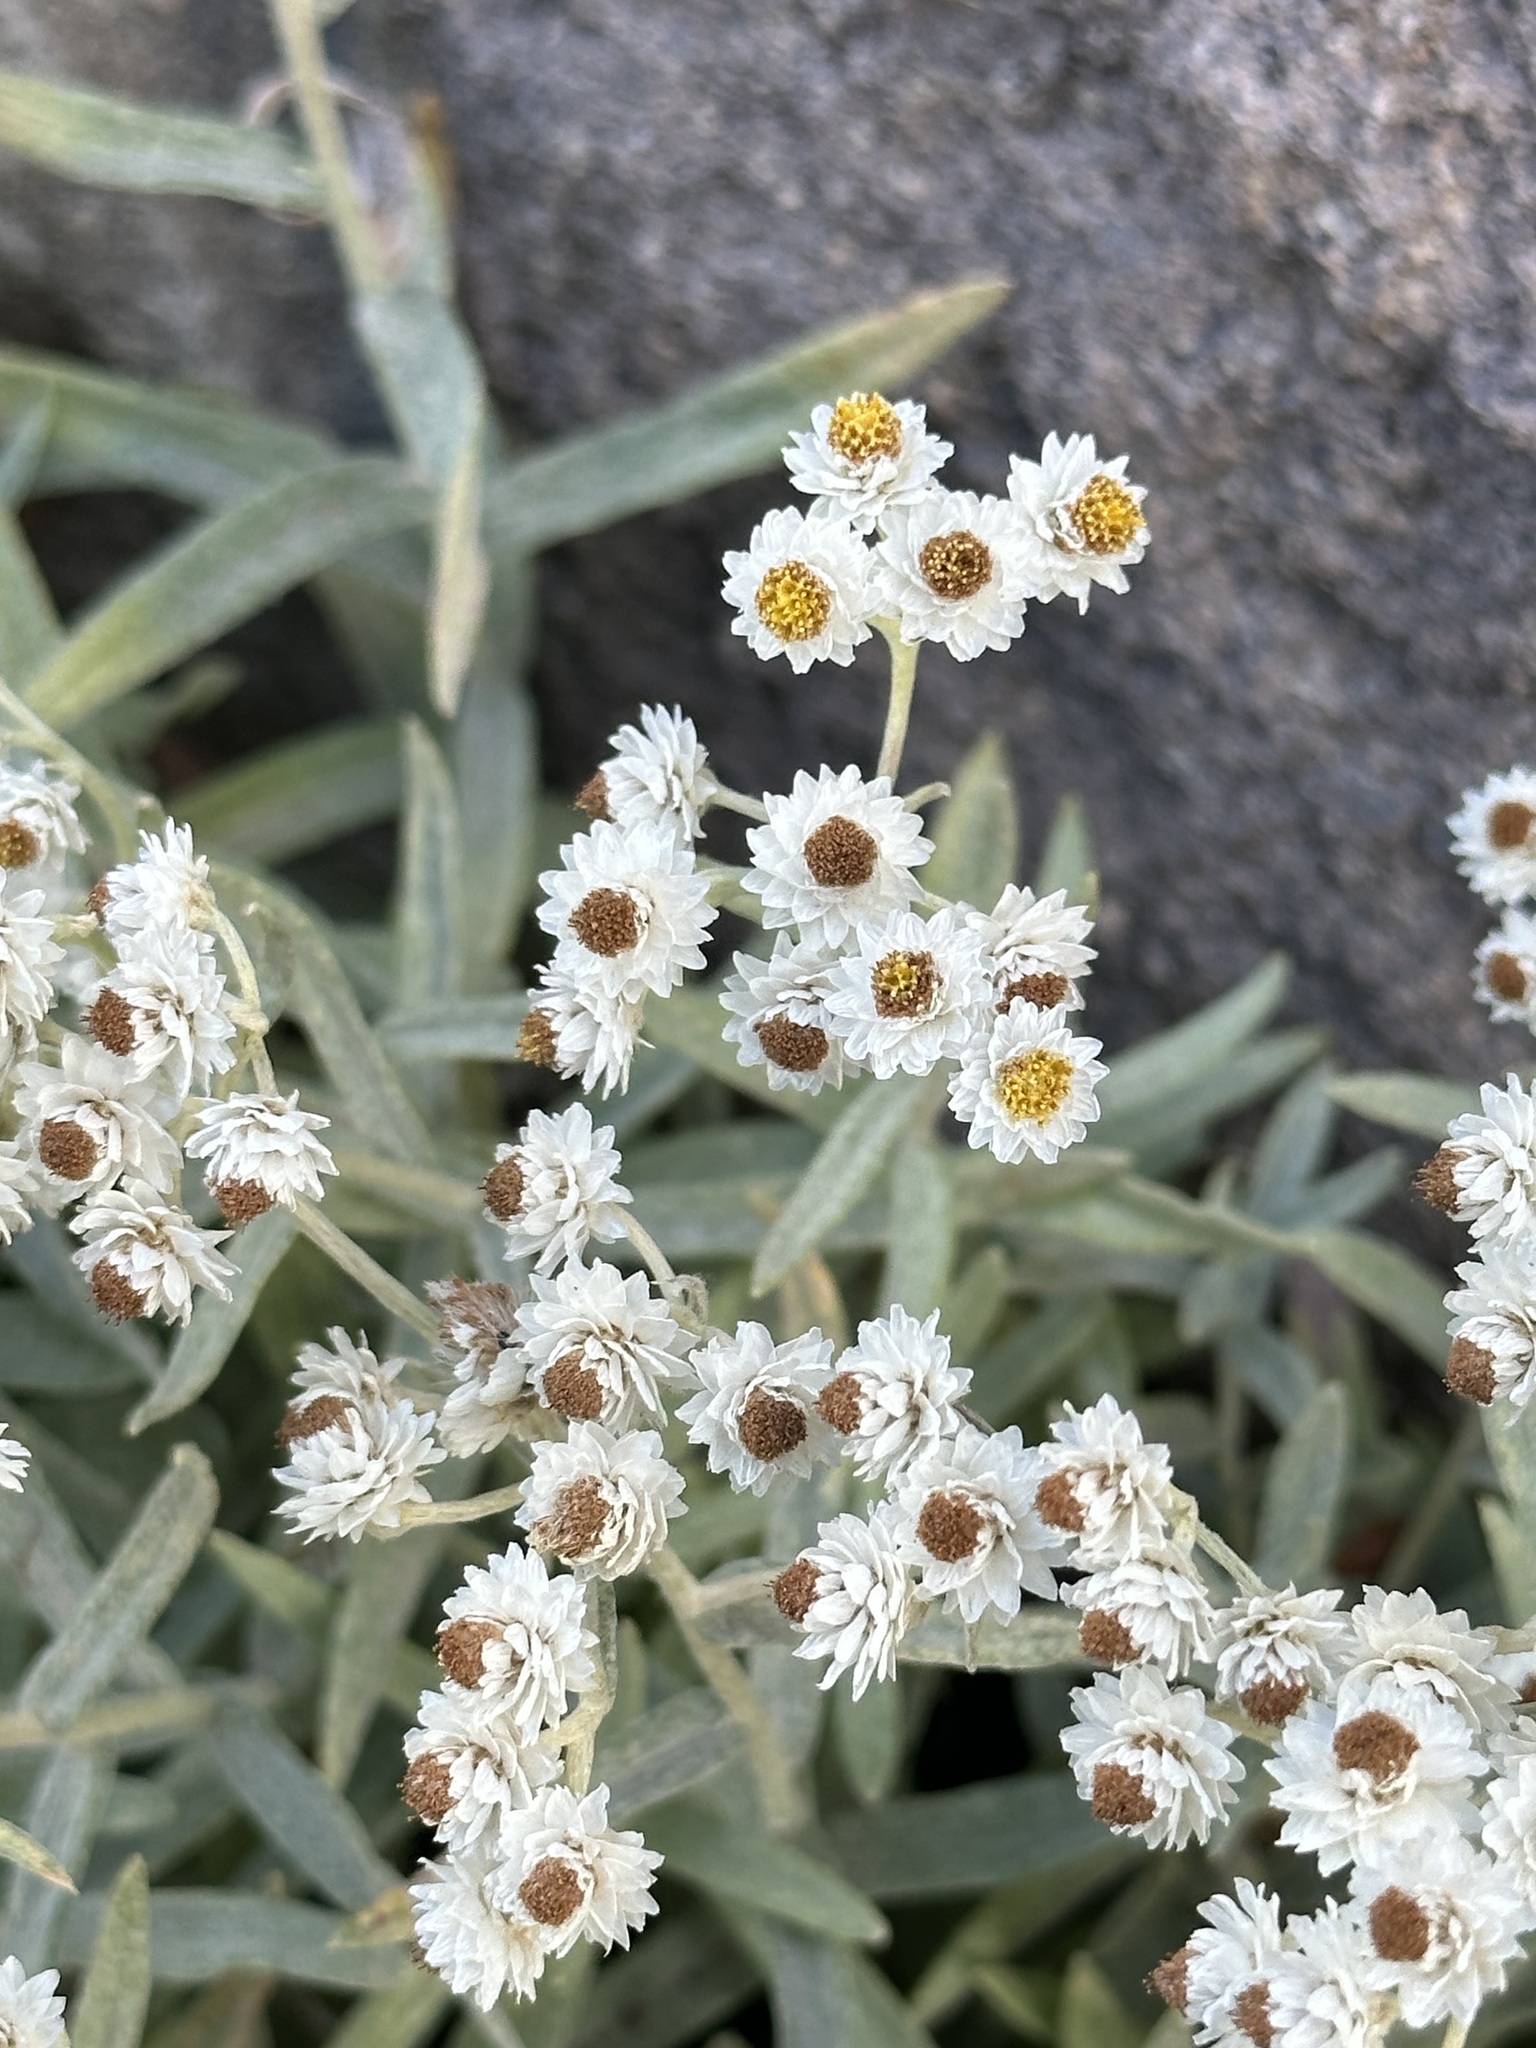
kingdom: Plantae
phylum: Tracheophyta
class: Magnoliopsida
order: Asterales
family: Asteraceae
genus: Anaphalis
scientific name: Anaphalis margaritacea
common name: Pearly everlasting
